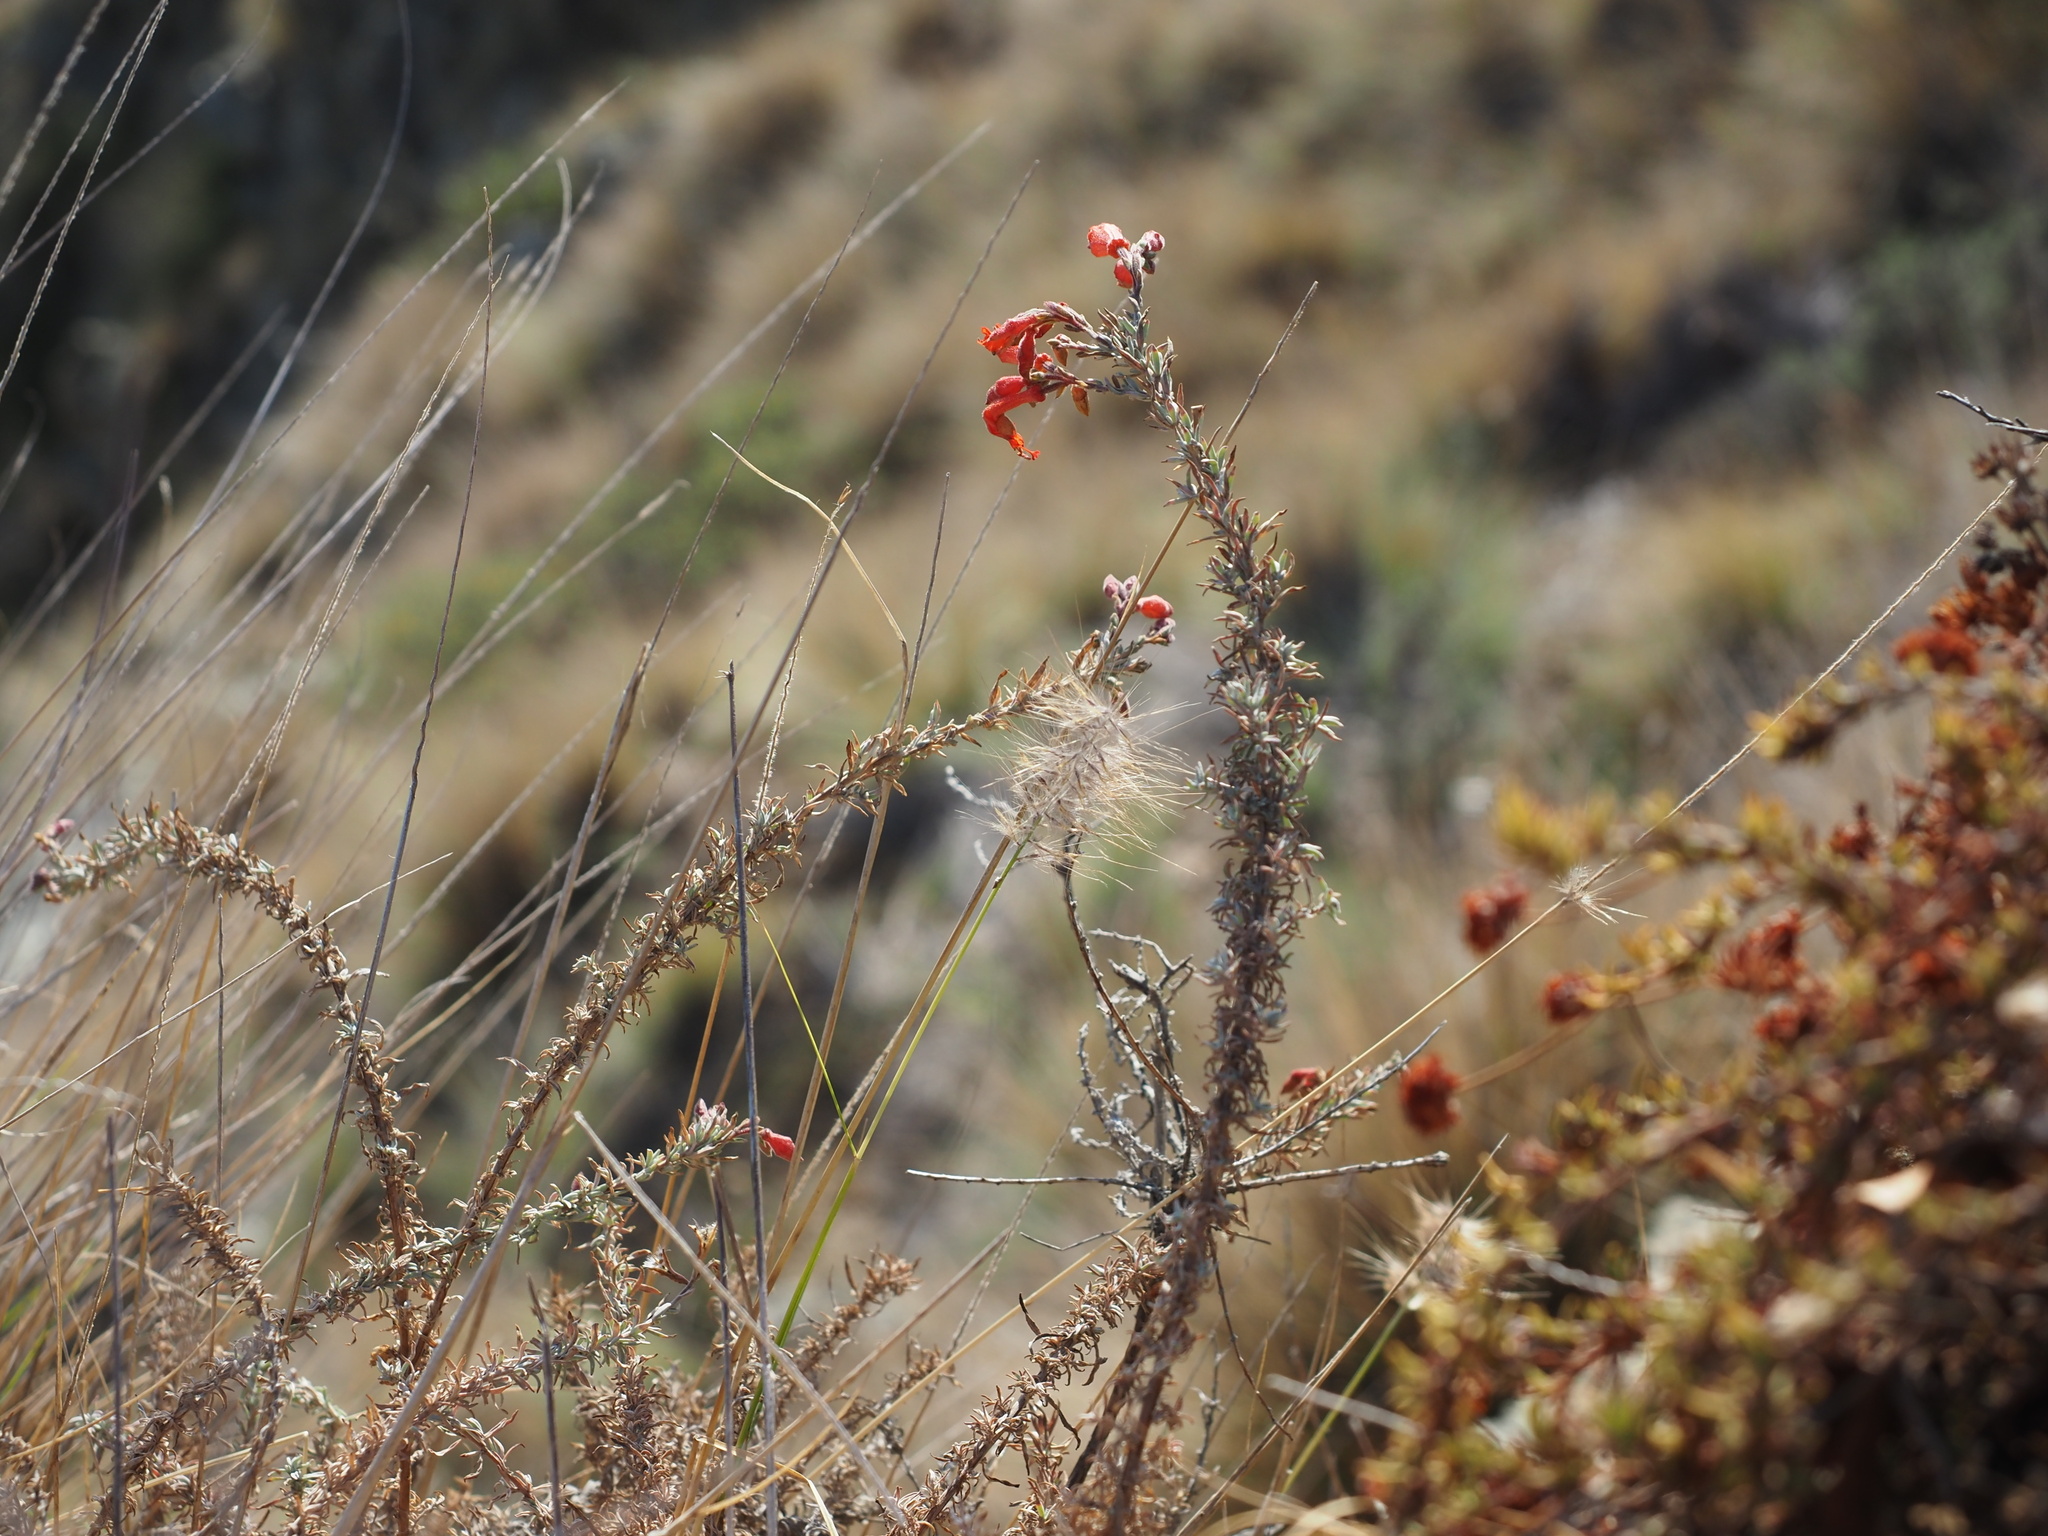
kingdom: Plantae
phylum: Tracheophyta
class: Magnoliopsida
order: Myrtales
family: Onagraceae
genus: Epilobium
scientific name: Epilobium canum
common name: California-fuchsia
